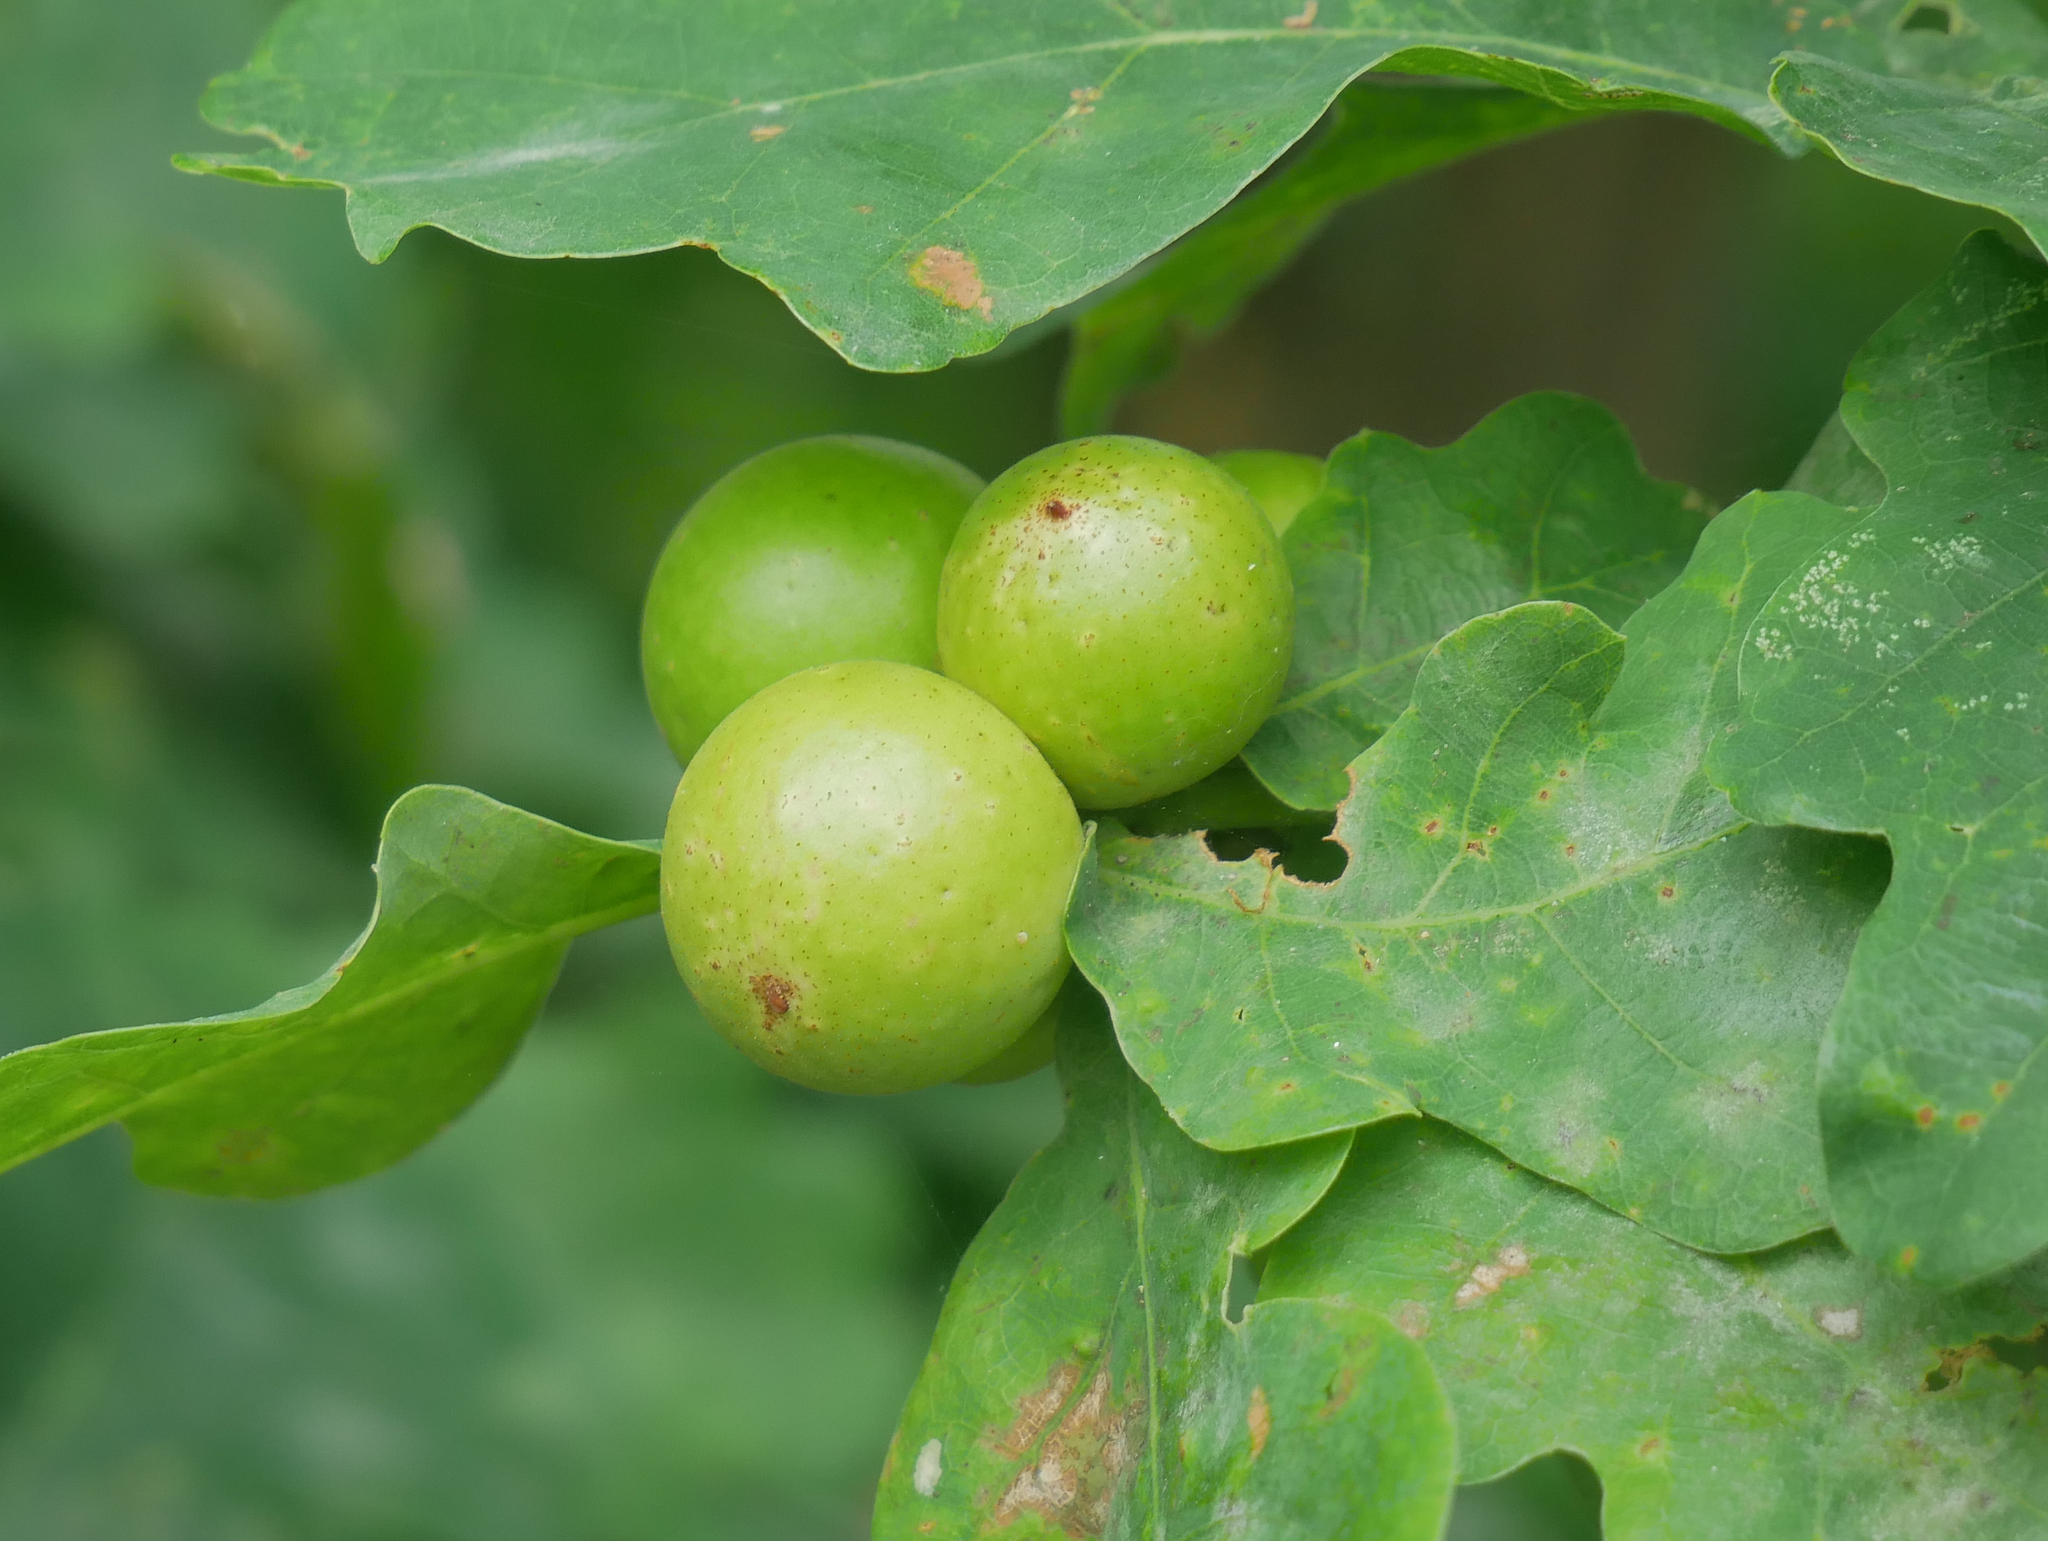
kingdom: Animalia
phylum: Arthropoda
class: Insecta
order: Hymenoptera
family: Cynipidae
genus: Andricus
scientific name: Andricus kollari
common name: Marble gall
